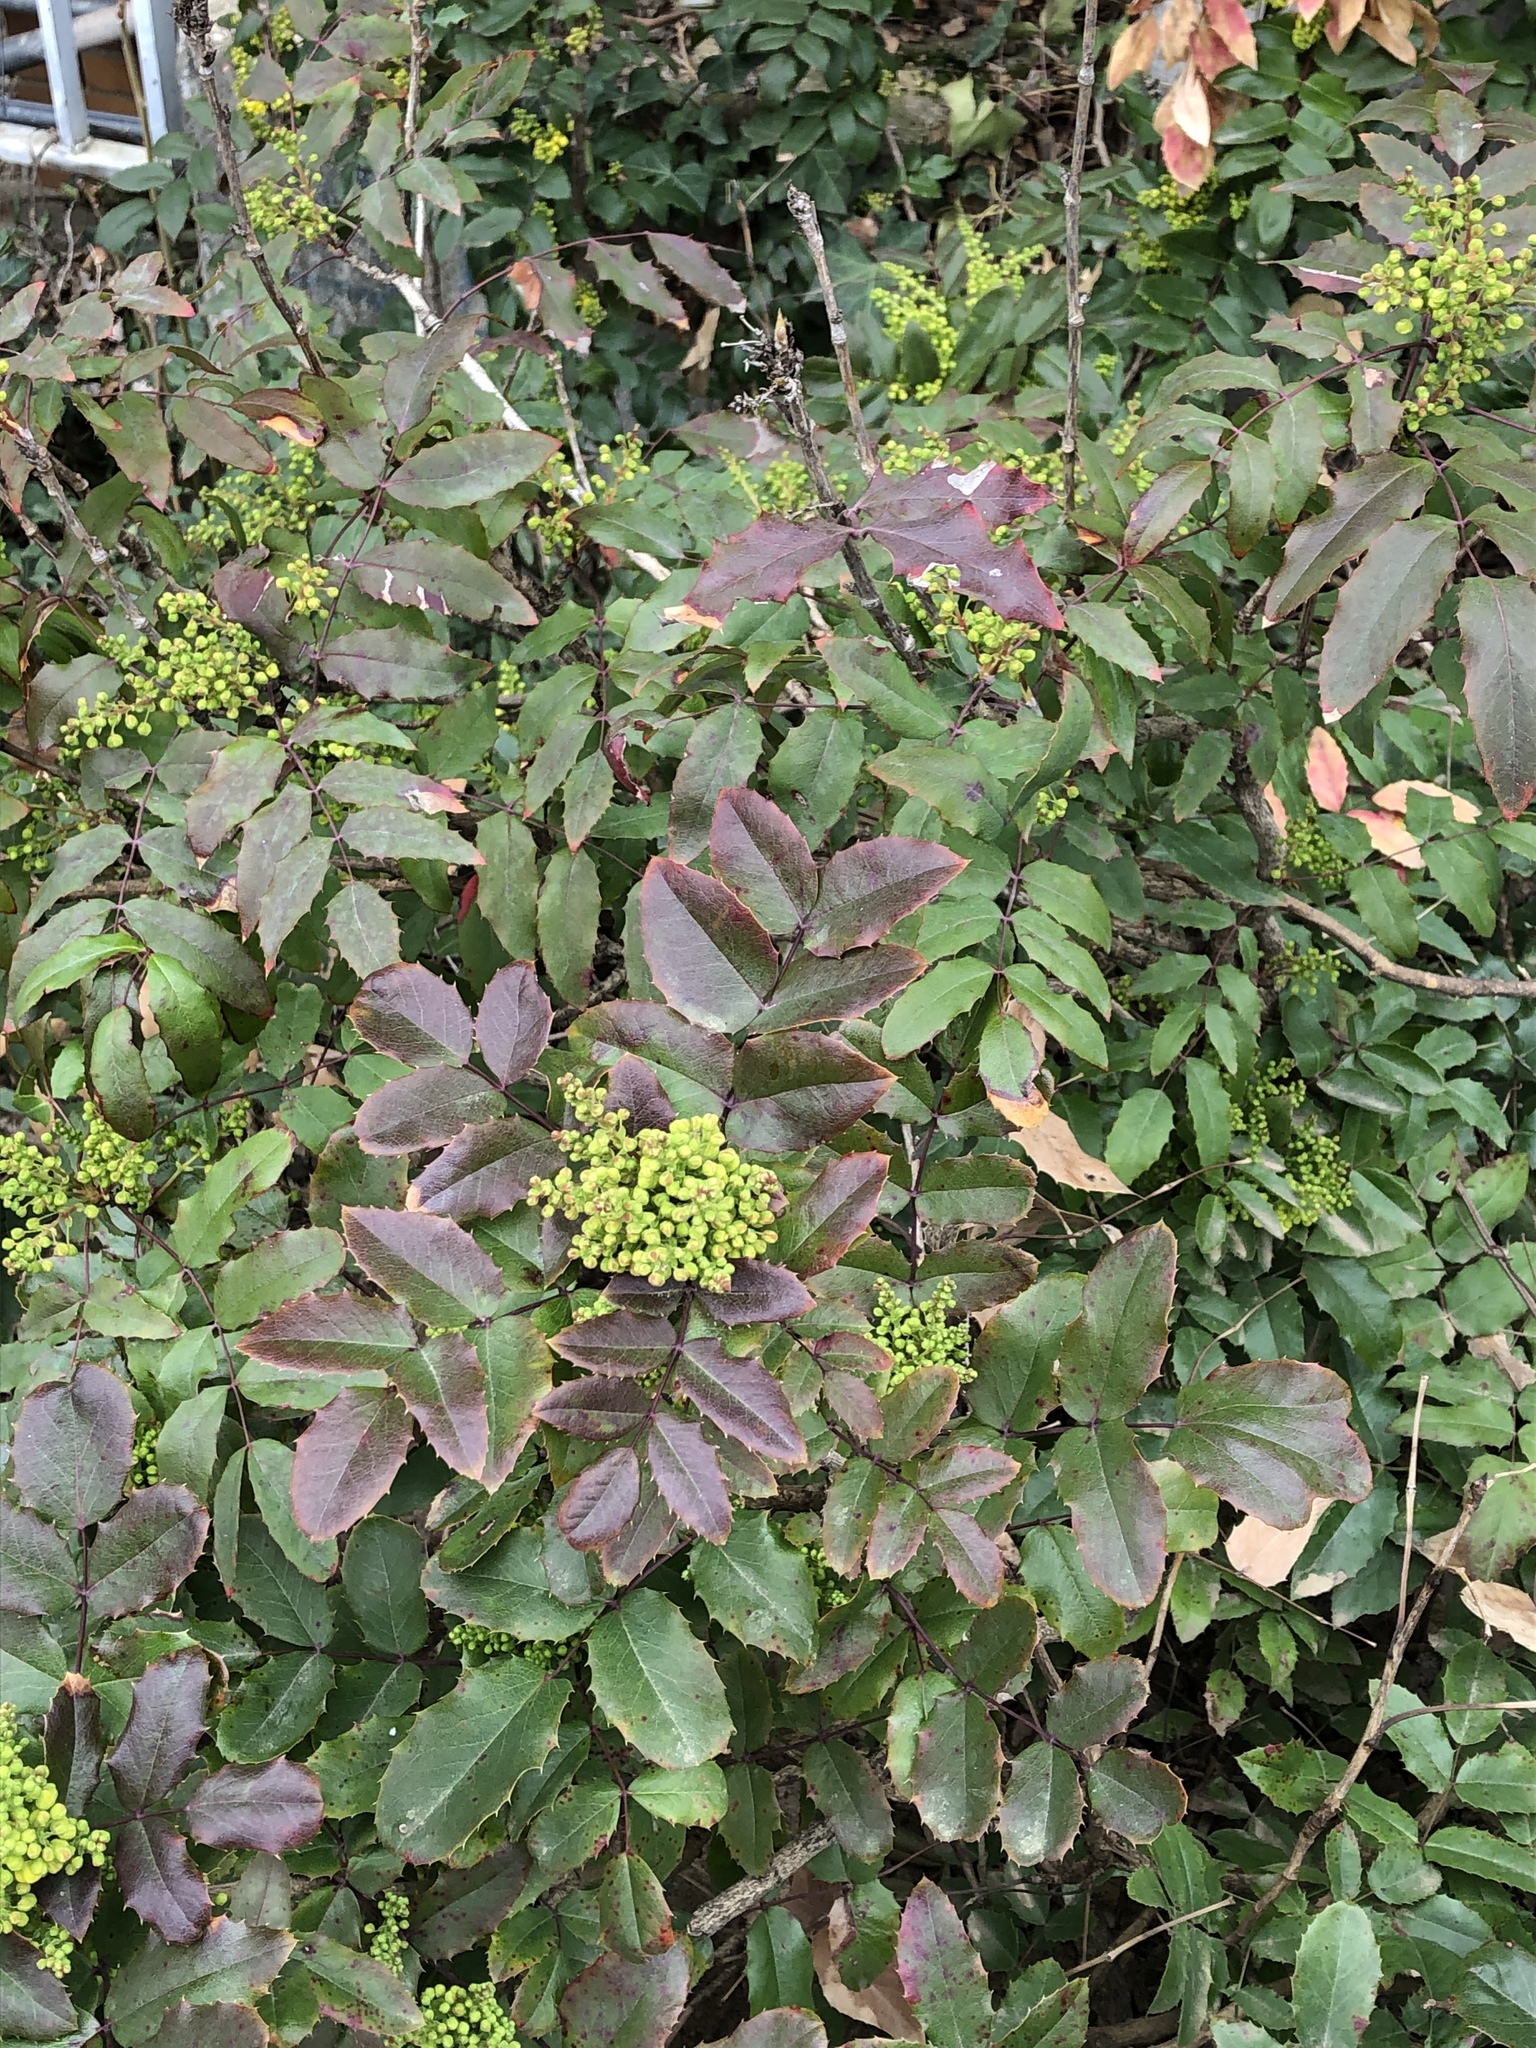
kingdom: Plantae
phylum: Tracheophyta
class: Magnoliopsida
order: Ranunculales
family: Berberidaceae
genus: Mahonia
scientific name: Mahonia aquifolium
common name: Oregon-grape
